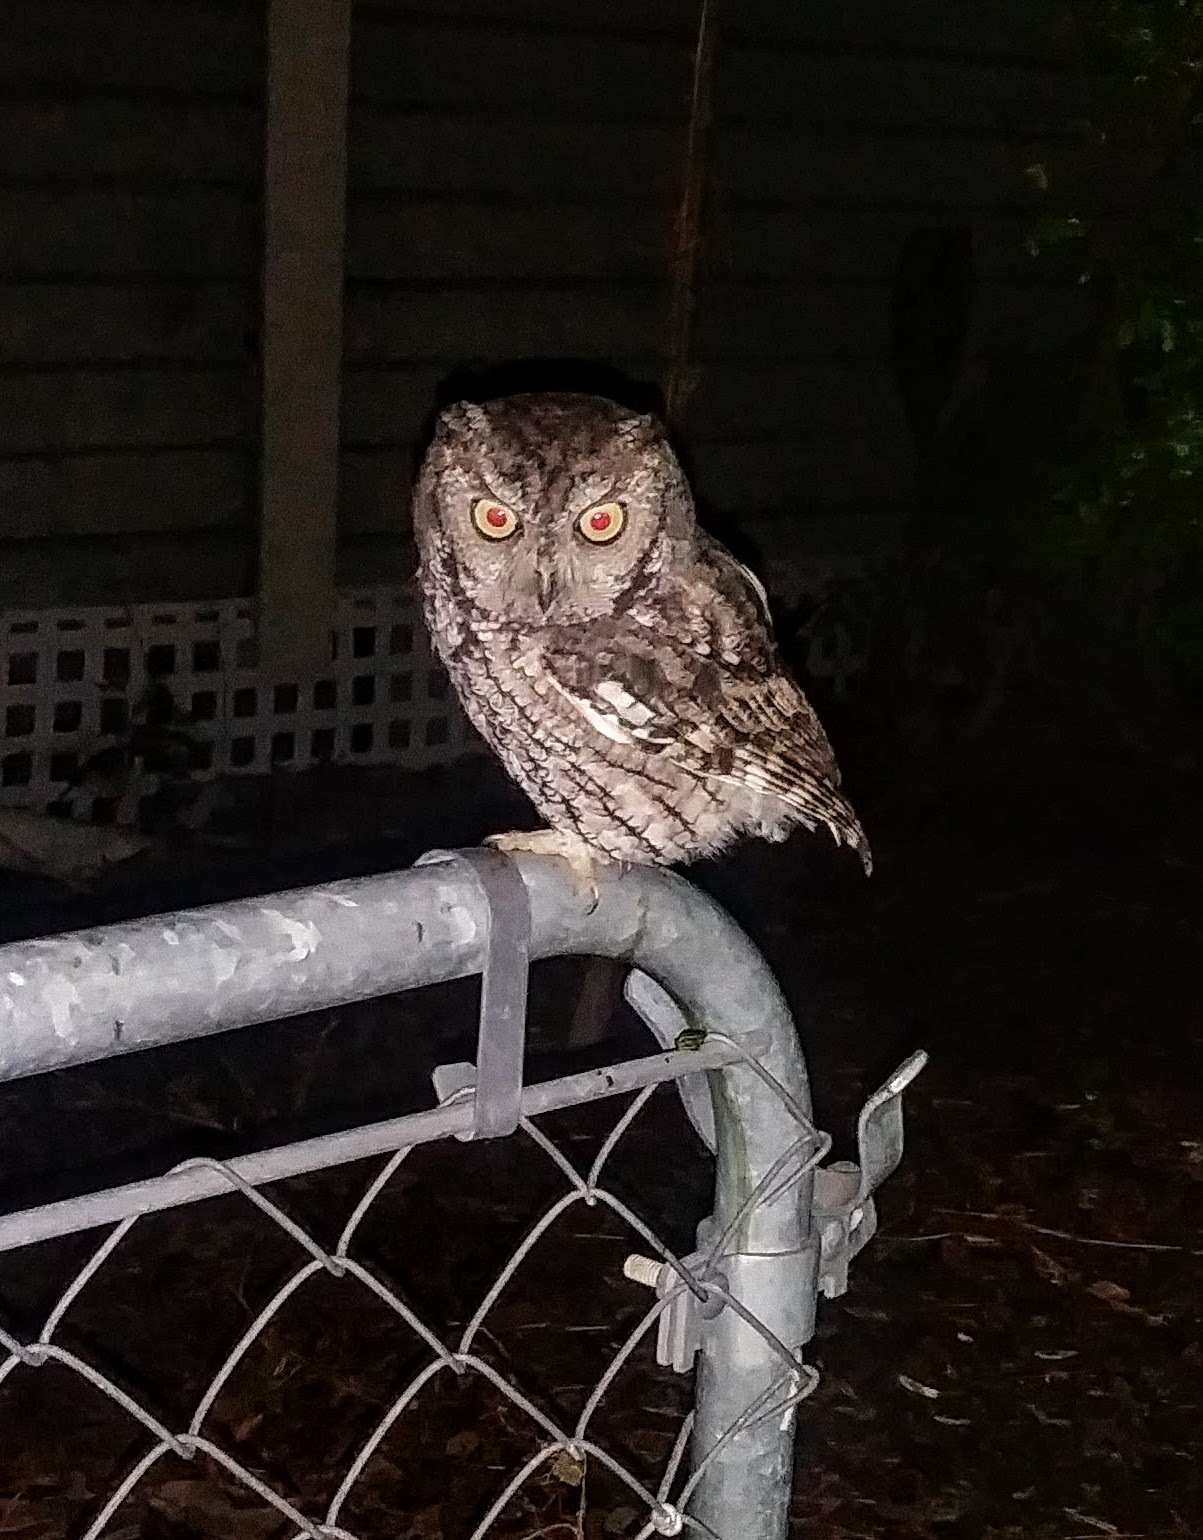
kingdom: Animalia
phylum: Chordata
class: Aves
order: Strigiformes
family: Strigidae
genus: Megascops
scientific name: Megascops asio
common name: Eastern screech-owl
